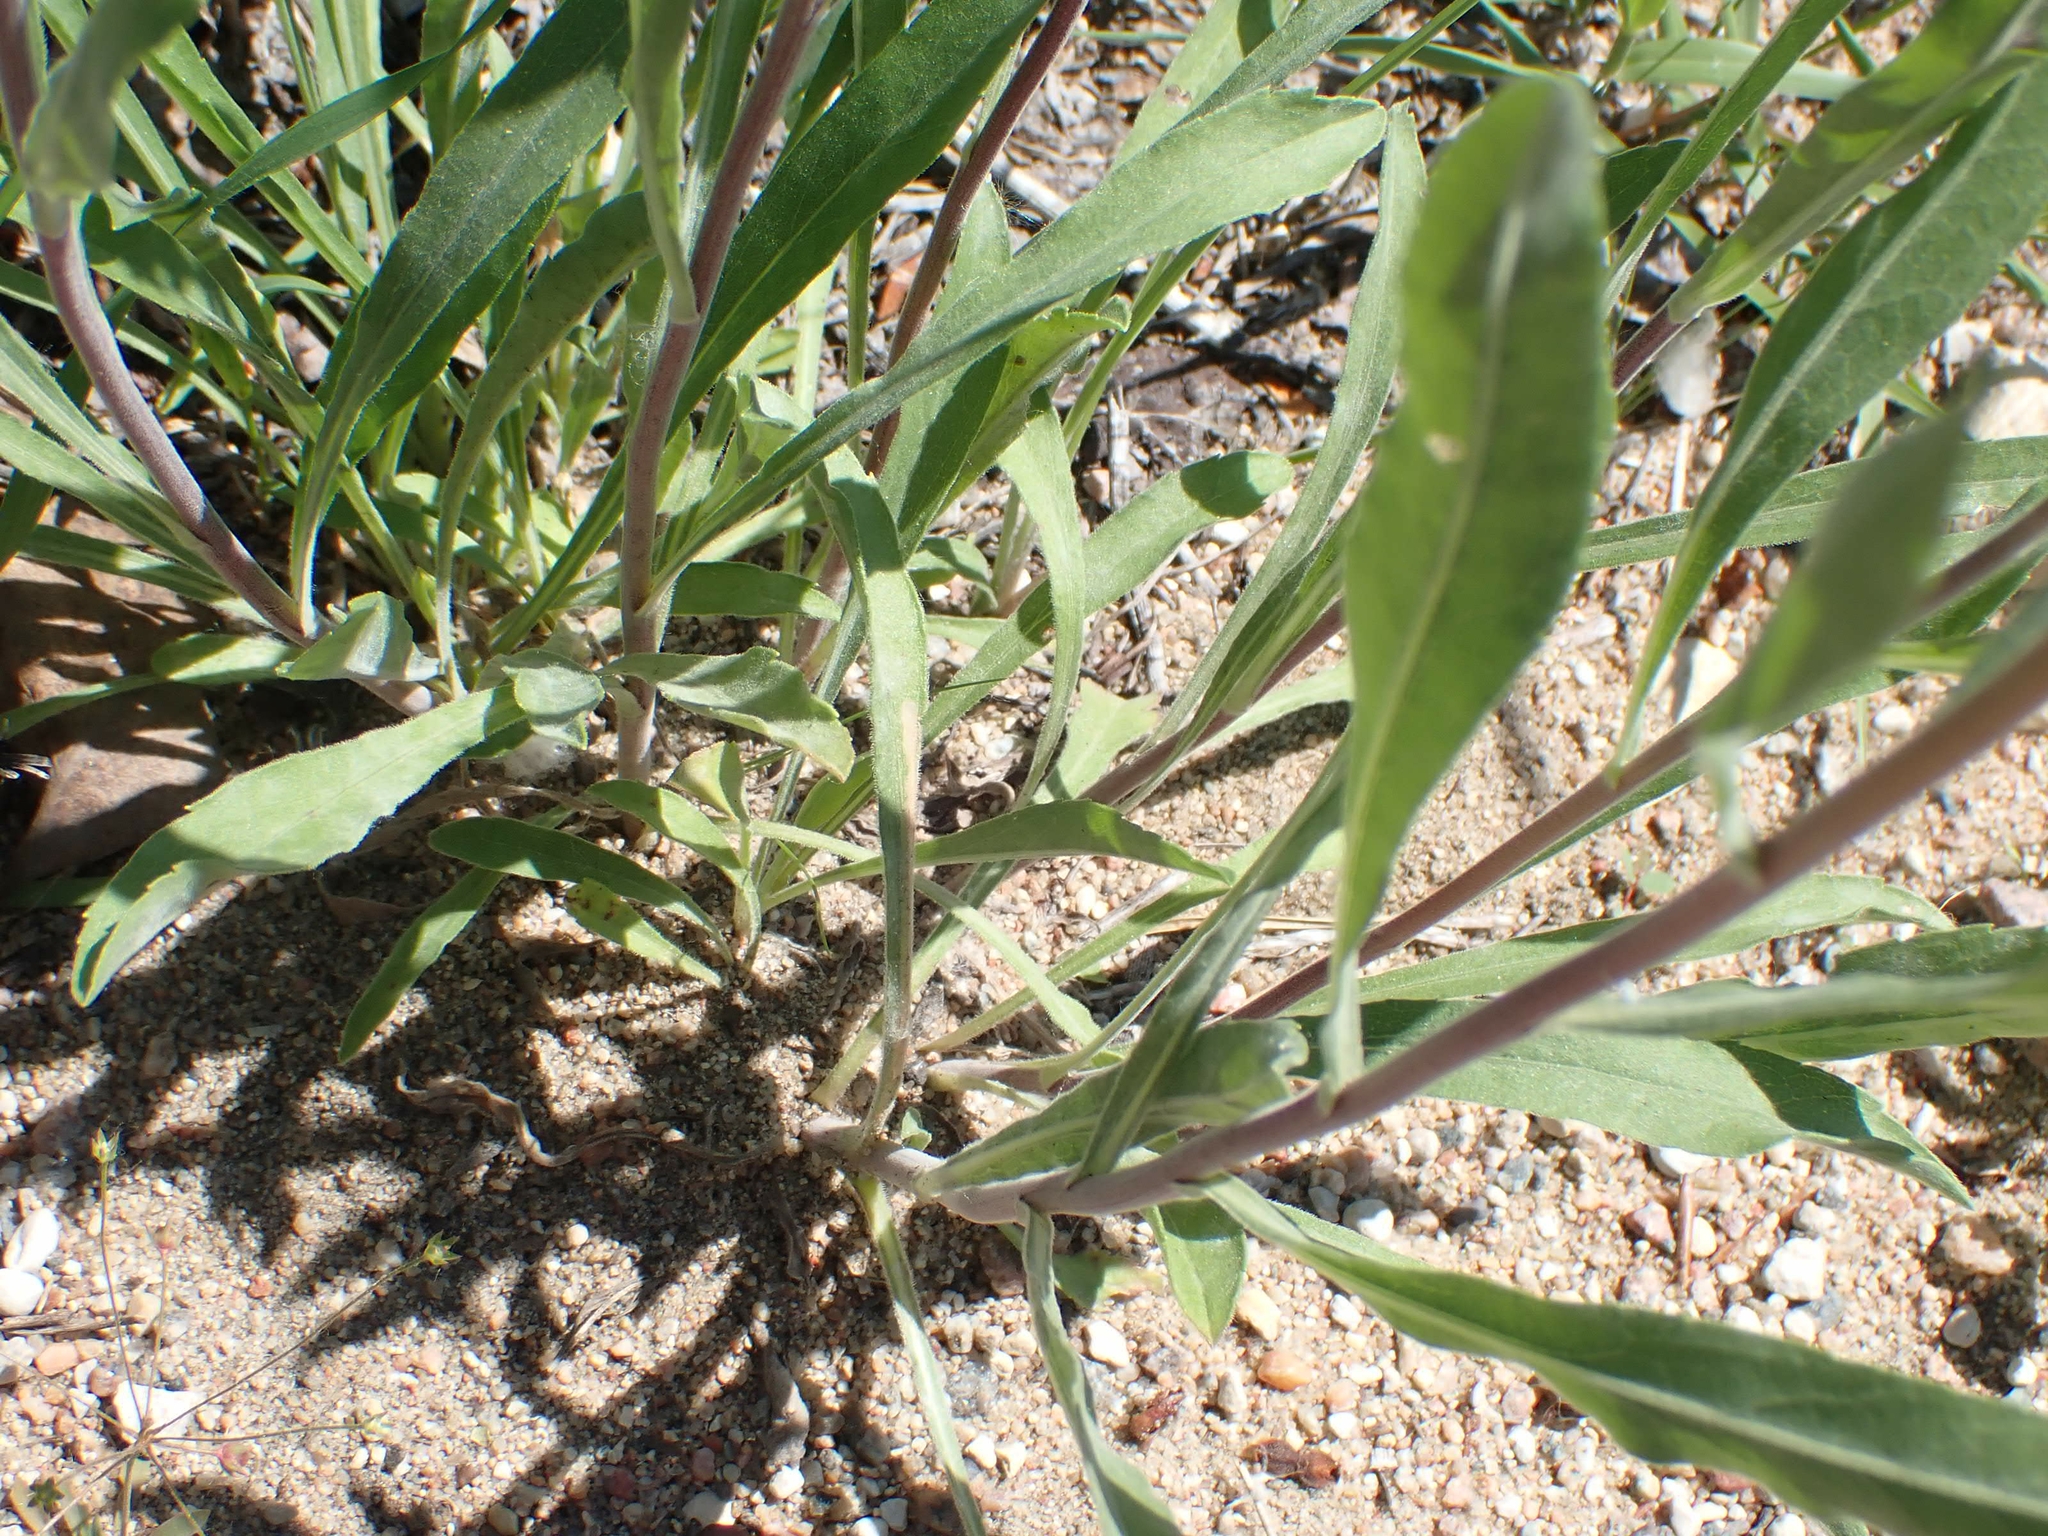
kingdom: Plantae
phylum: Tracheophyta
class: Magnoliopsida
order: Asterales
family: Asteraceae
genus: Solidago
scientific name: Solidago nemoralis
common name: Grey goldenrod
